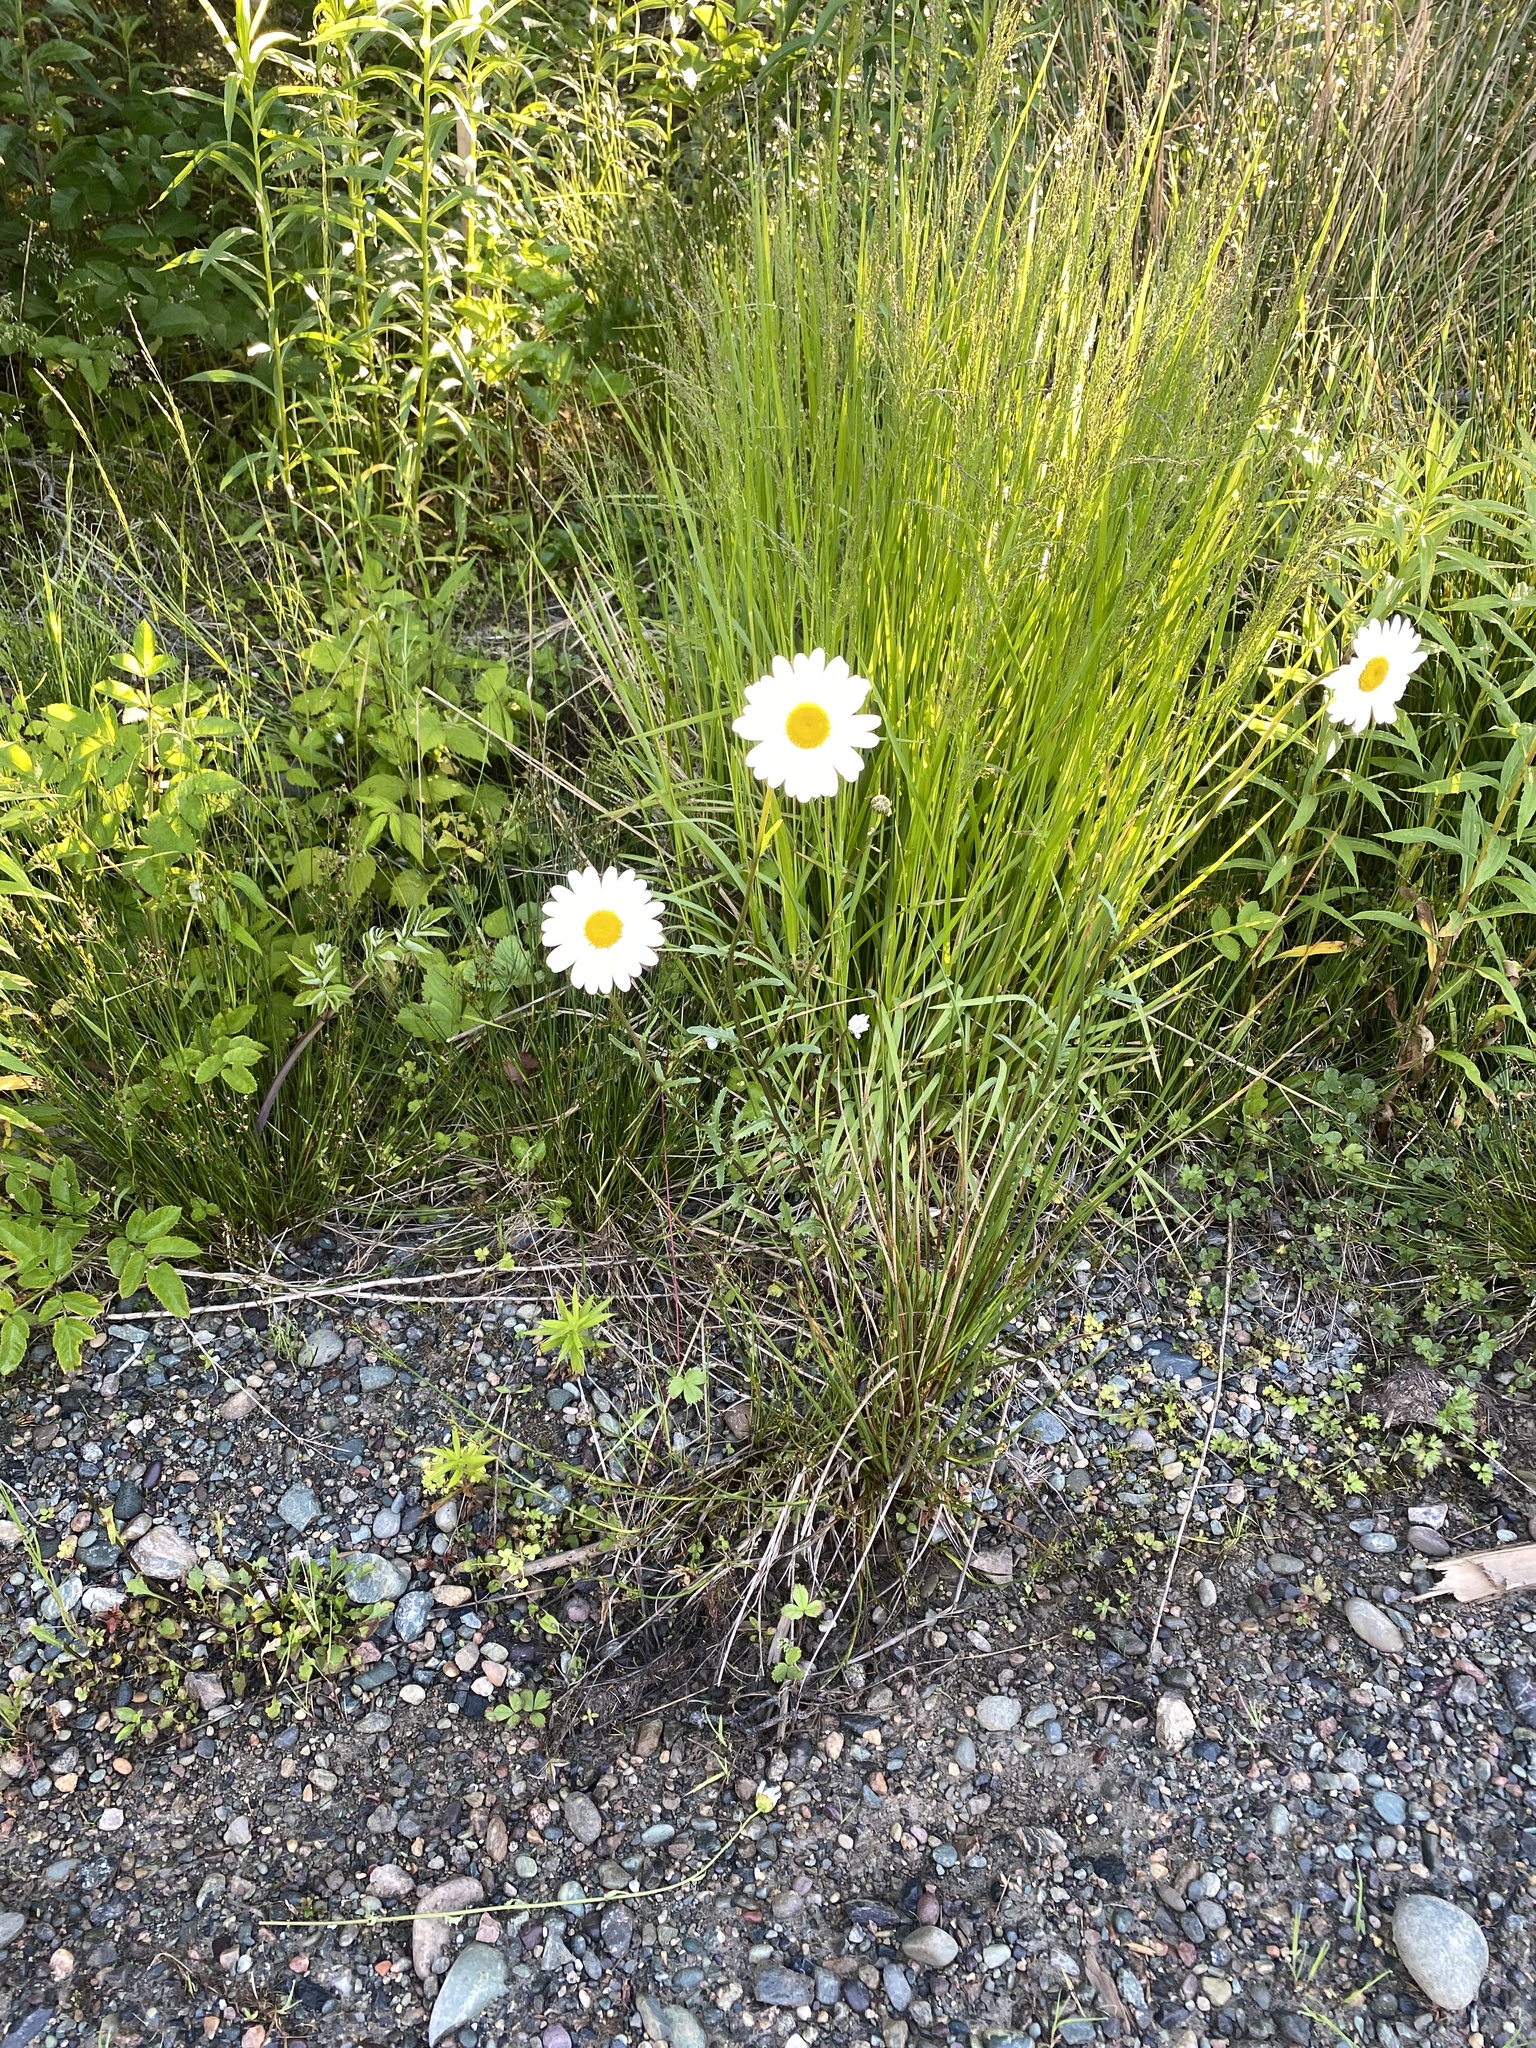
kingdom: Plantae
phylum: Tracheophyta
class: Magnoliopsida
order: Asterales
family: Asteraceae
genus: Leucanthemum
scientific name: Leucanthemum vulgare
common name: Oxeye daisy
